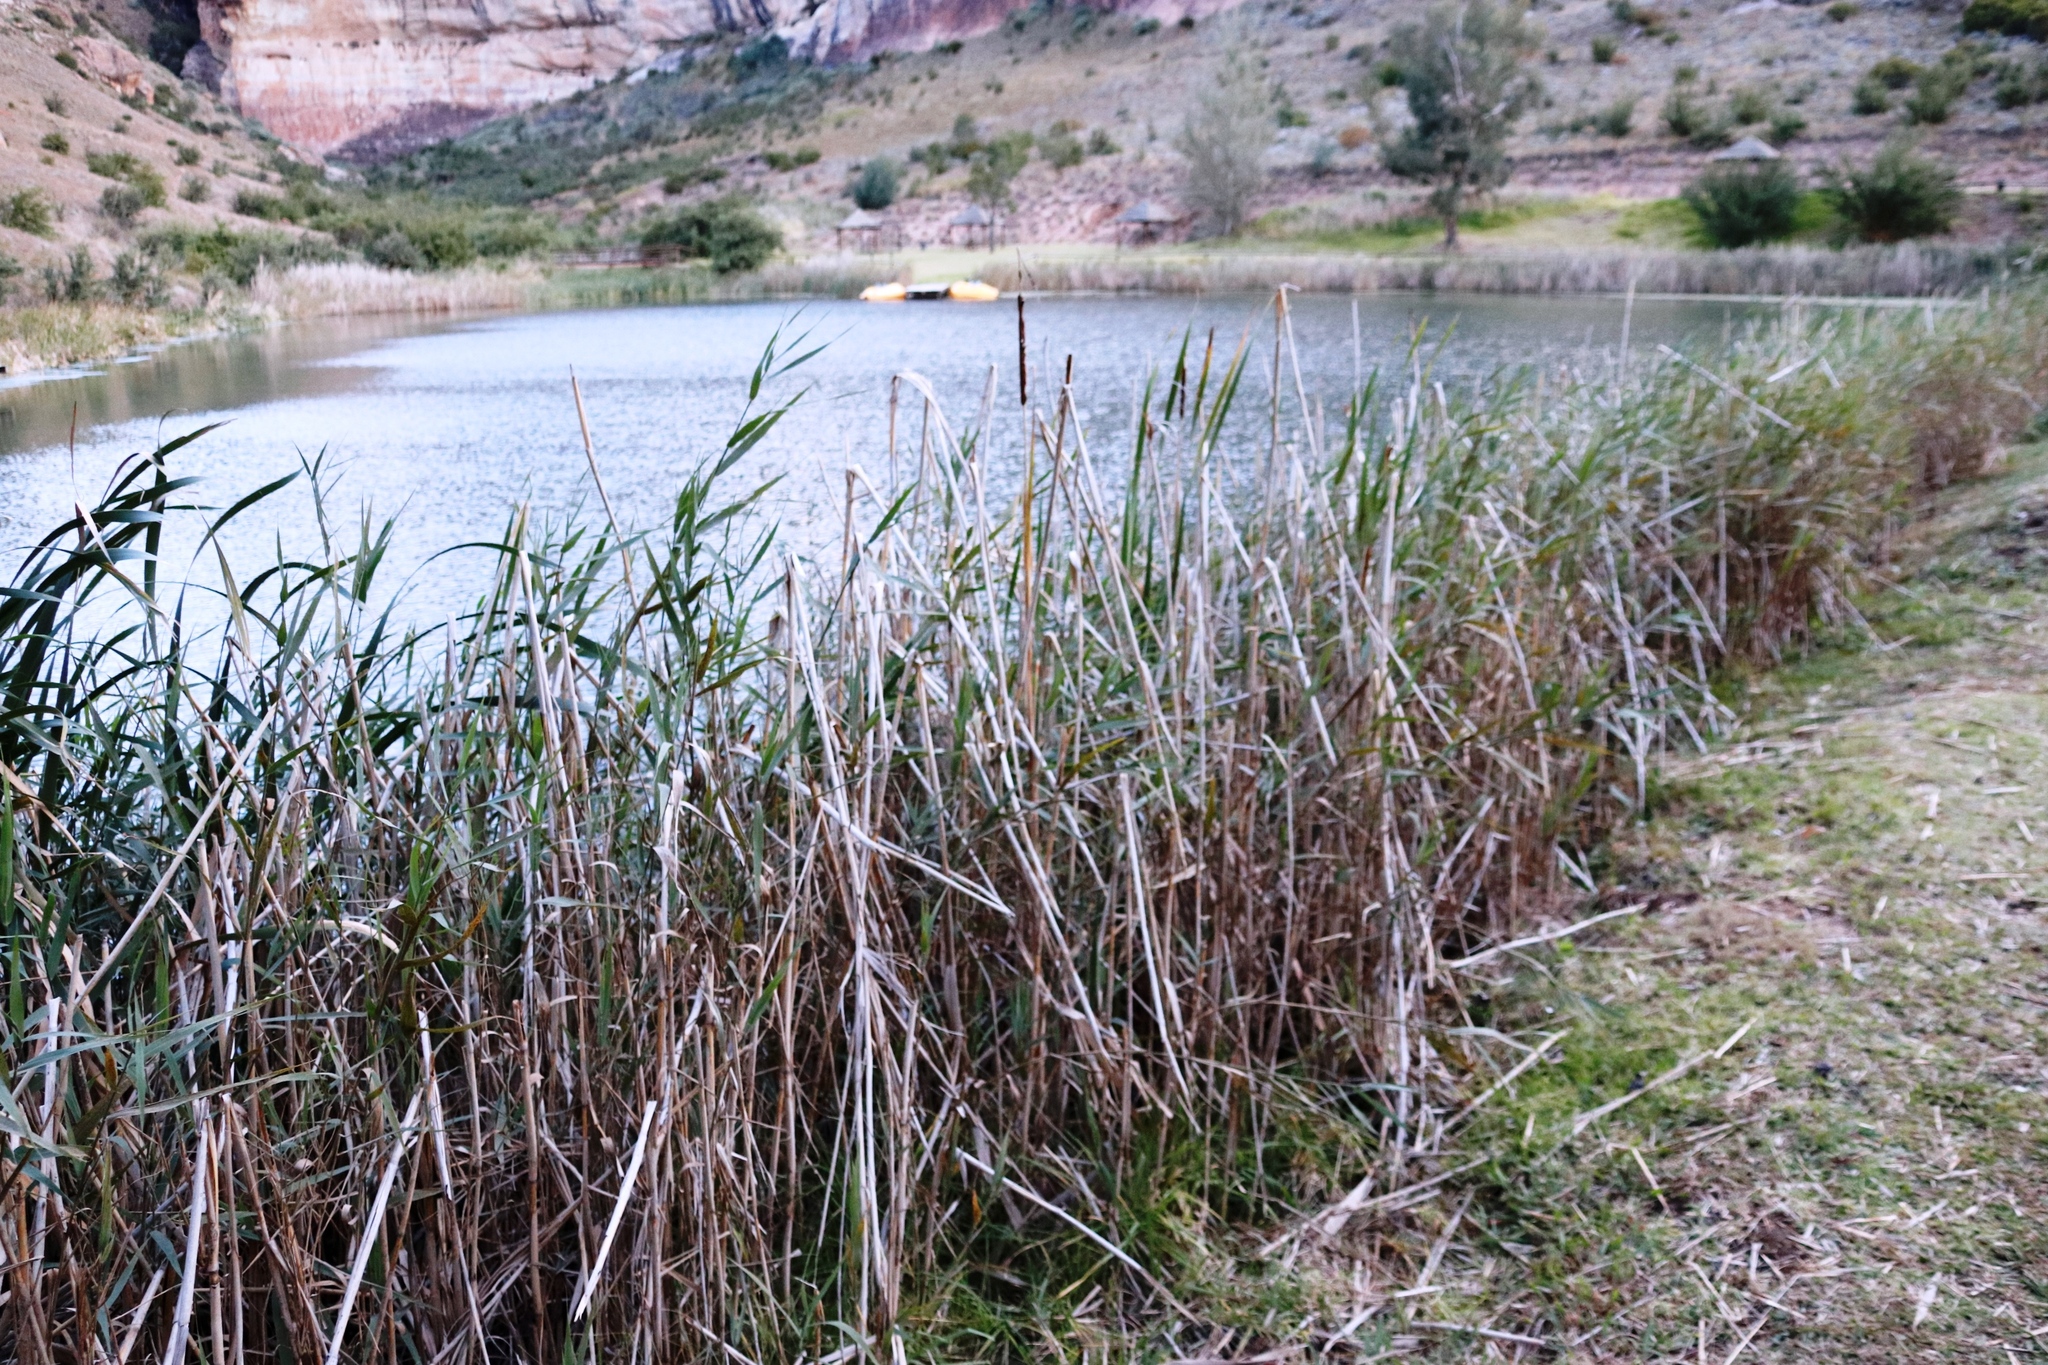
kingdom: Plantae
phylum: Tracheophyta
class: Liliopsida
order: Poales
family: Typhaceae
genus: Typha
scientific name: Typha capensis
